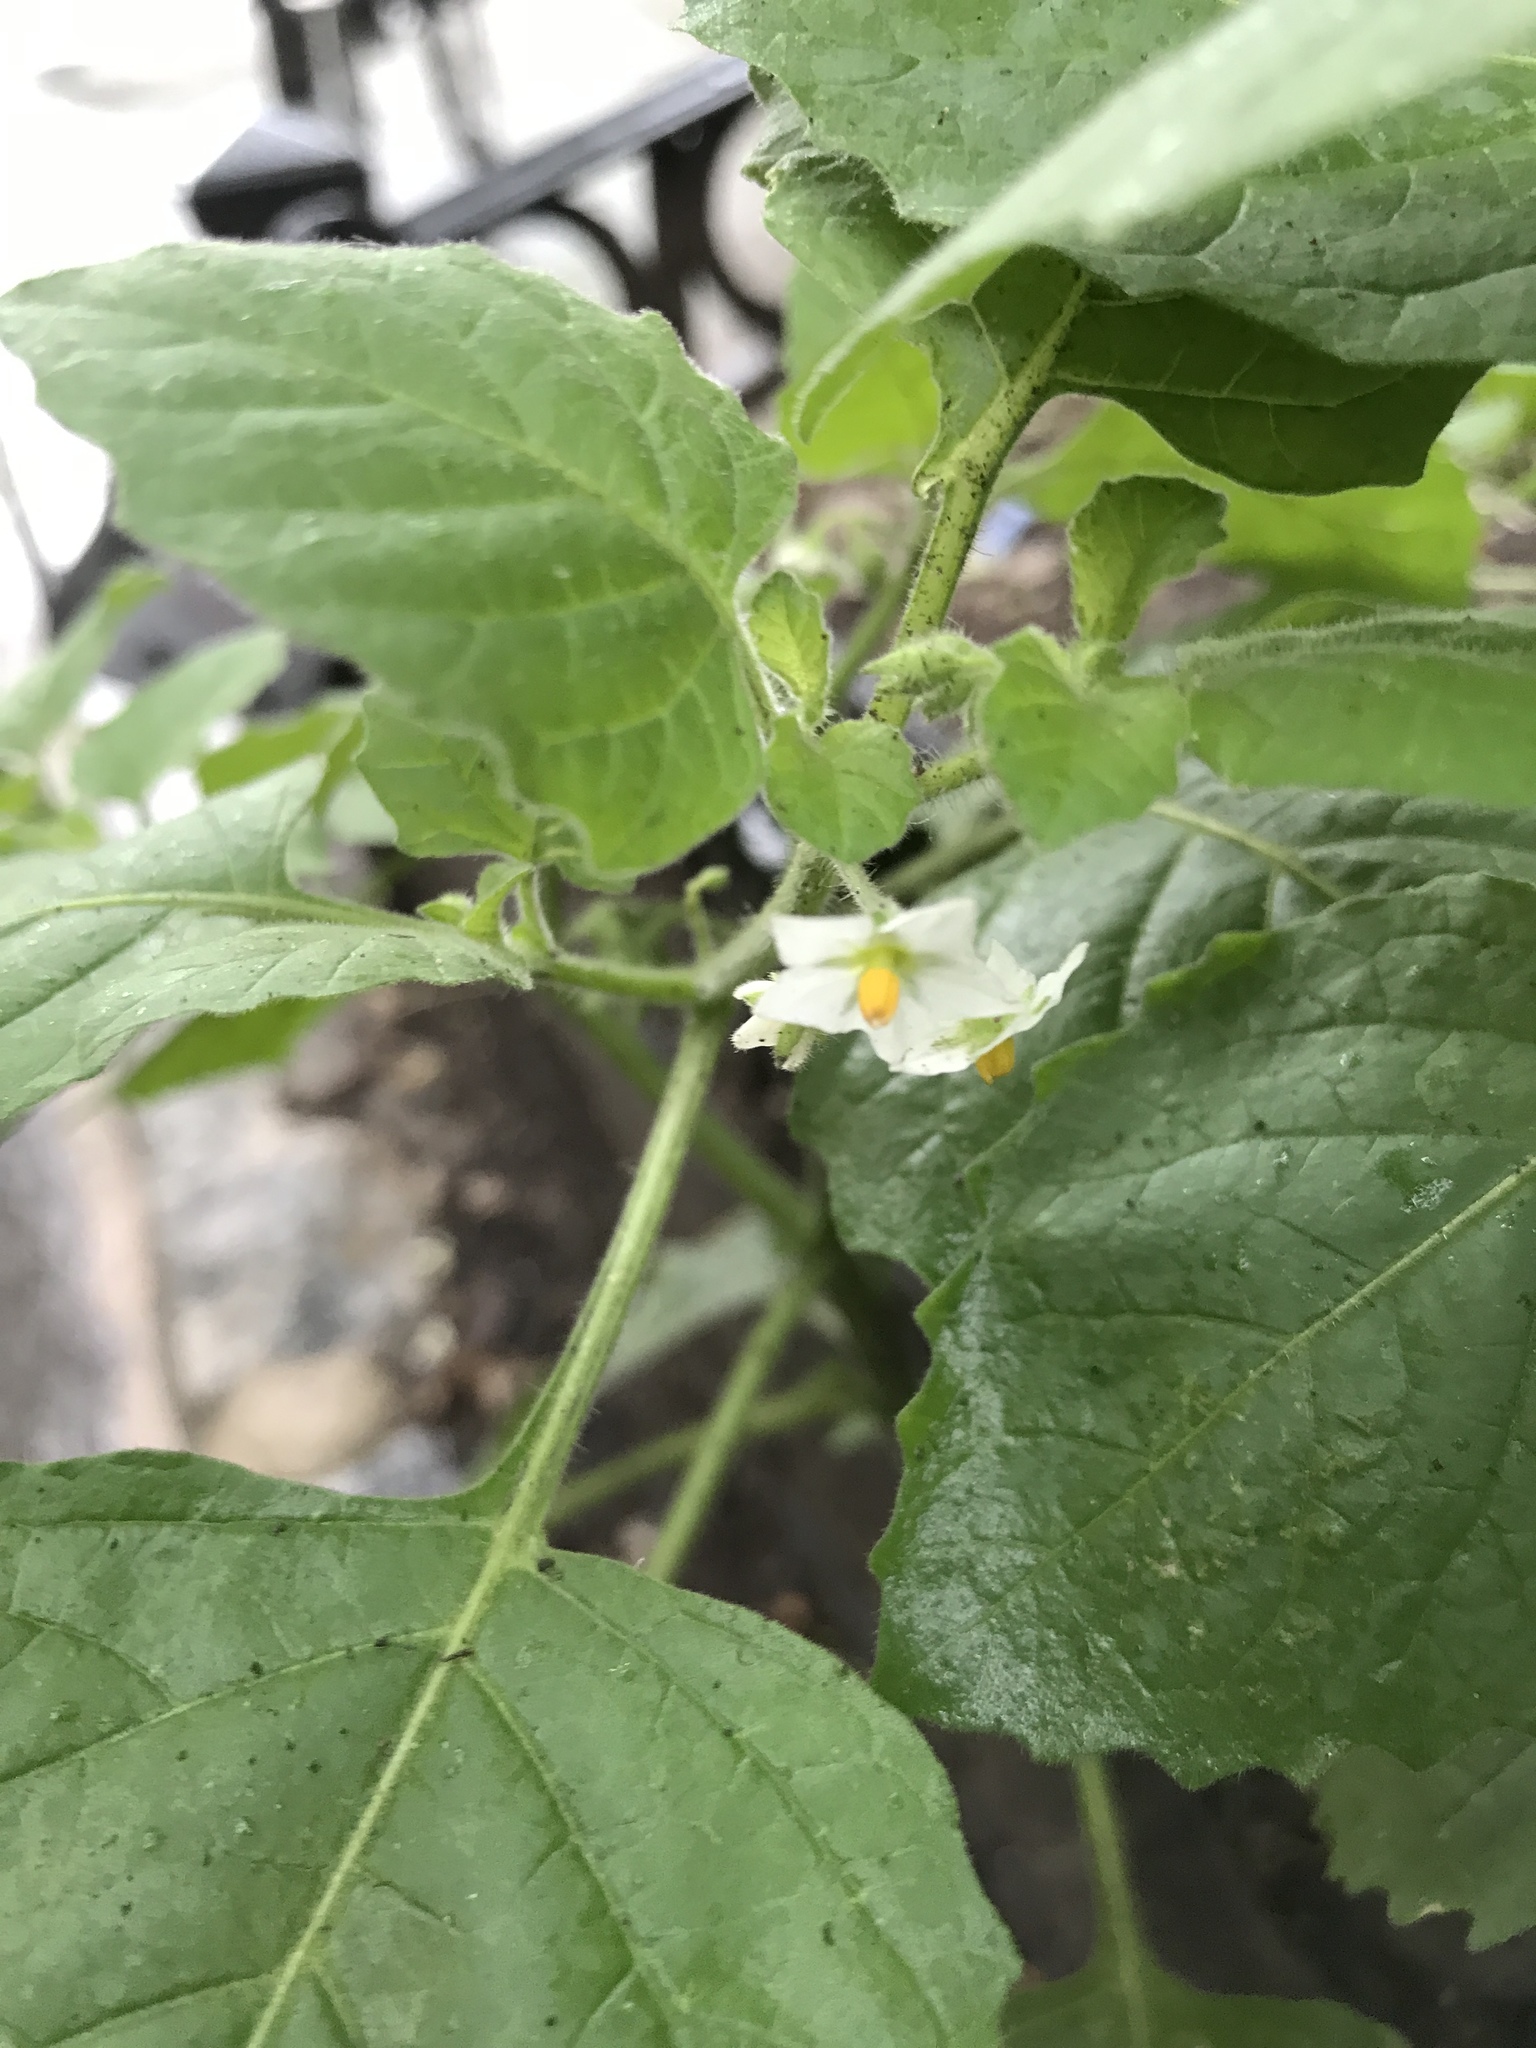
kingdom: Plantae
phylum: Tracheophyta
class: Magnoliopsida
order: Solanales
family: Solanaceae
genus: Solanum
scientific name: Solanum sarrachoides
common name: Leafy-fruited nightshade
